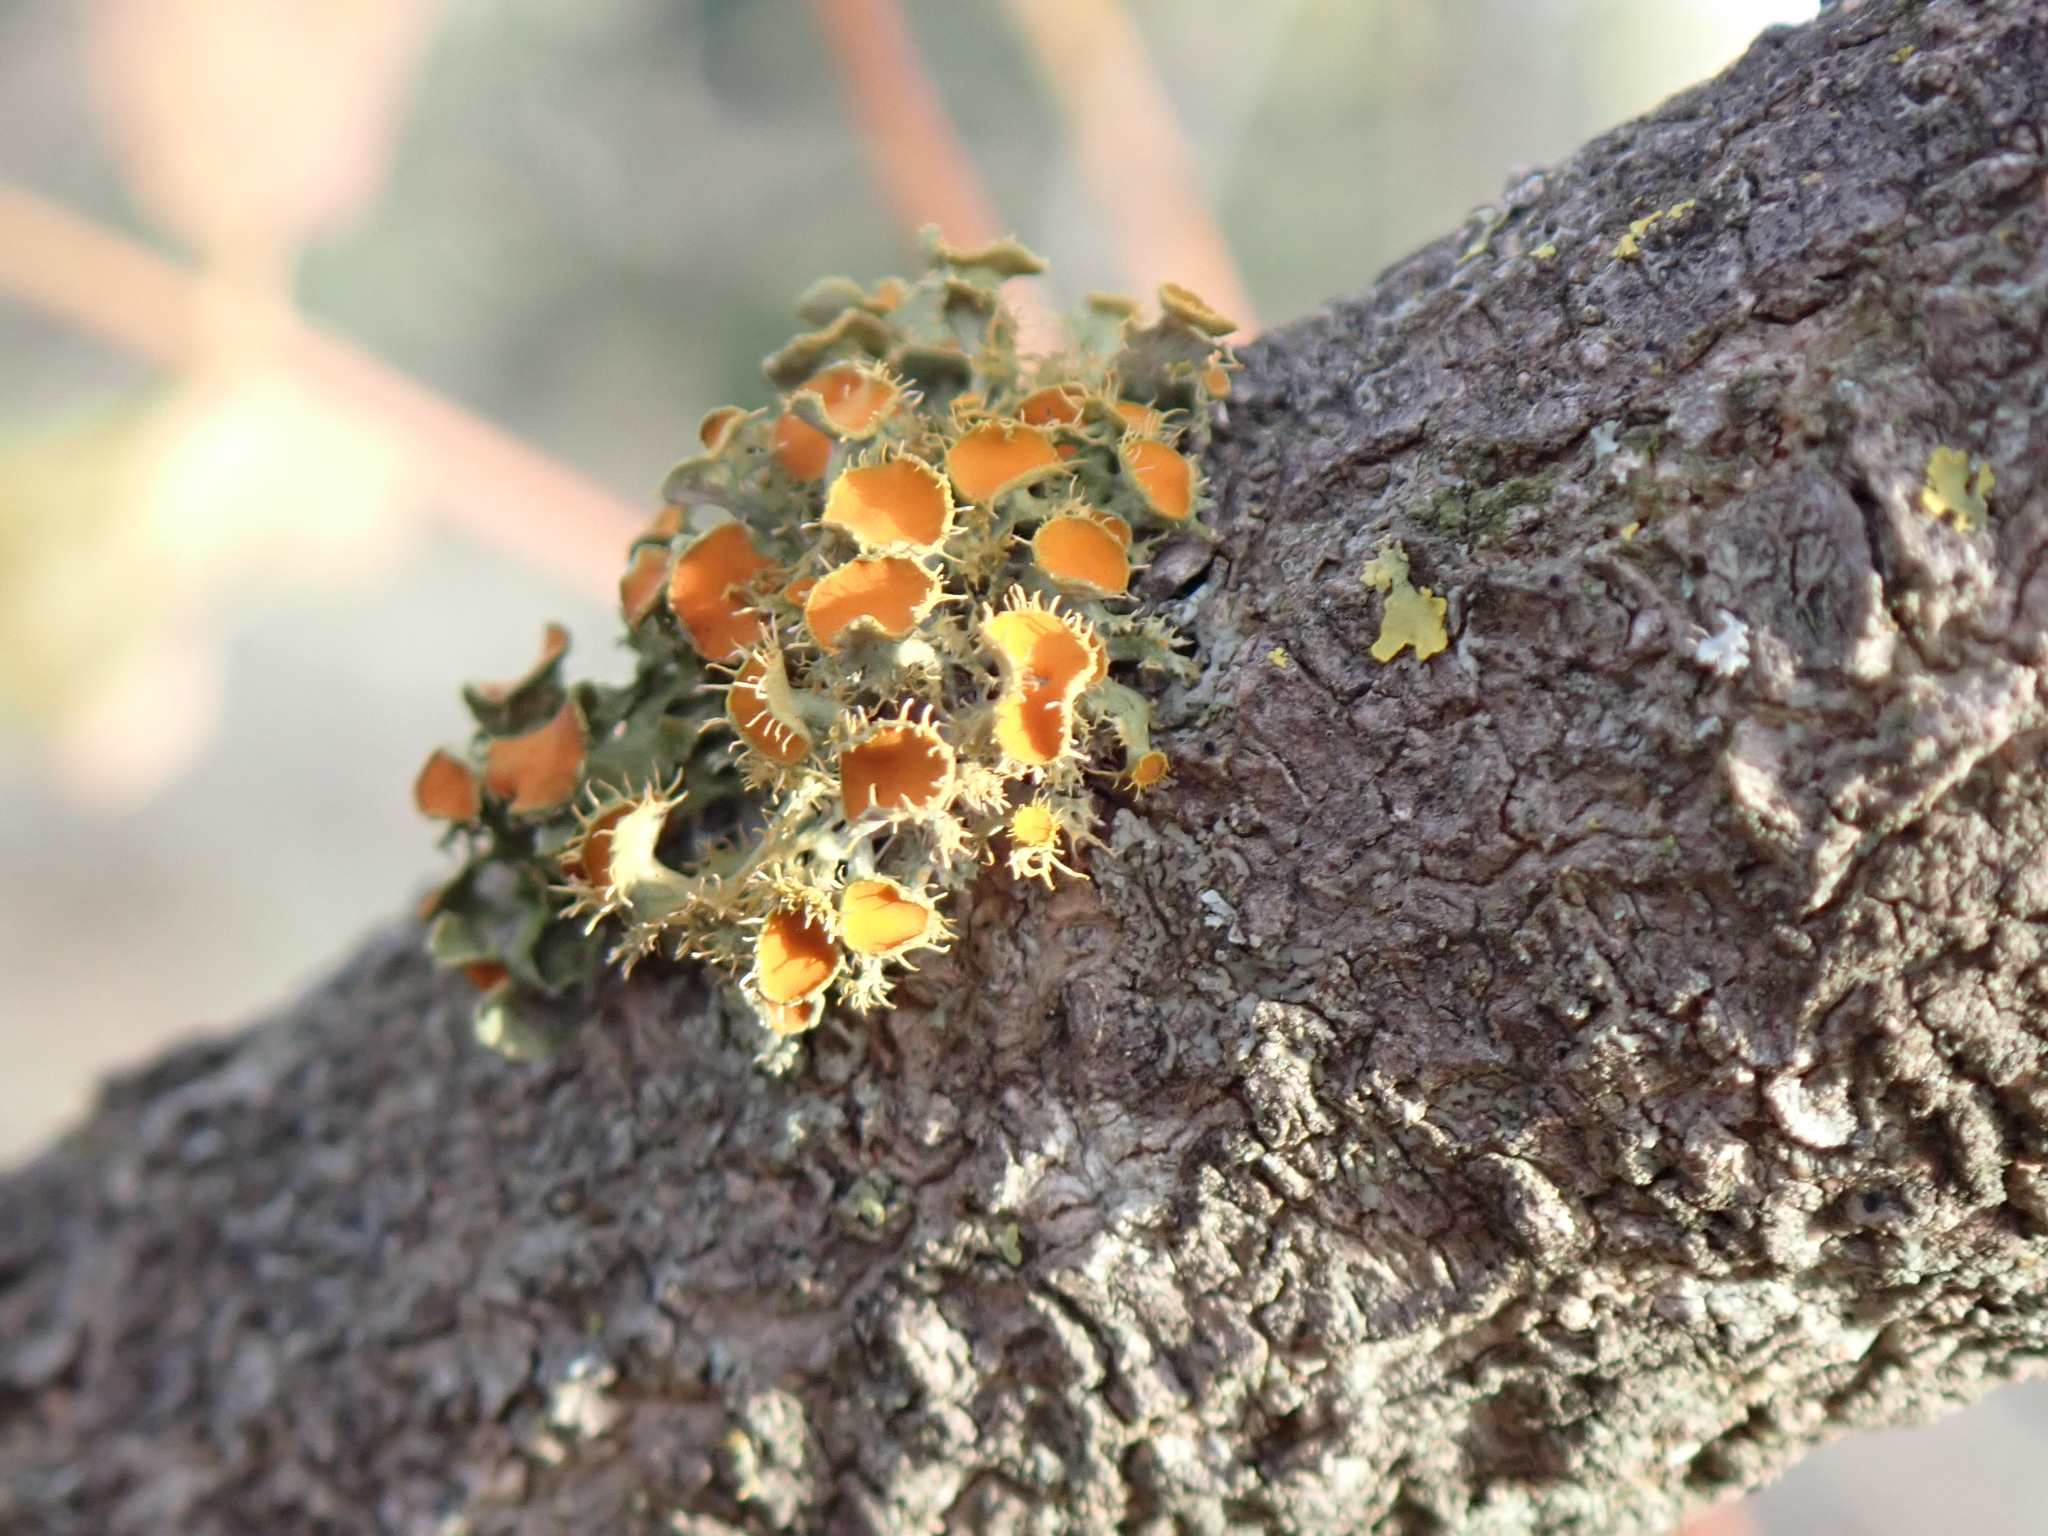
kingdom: Fungi
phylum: Ascomycota
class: Lecanoromycetes
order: Teloschistales
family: Teloschistaceae
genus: Niorma
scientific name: Niorma chrysophthalma
